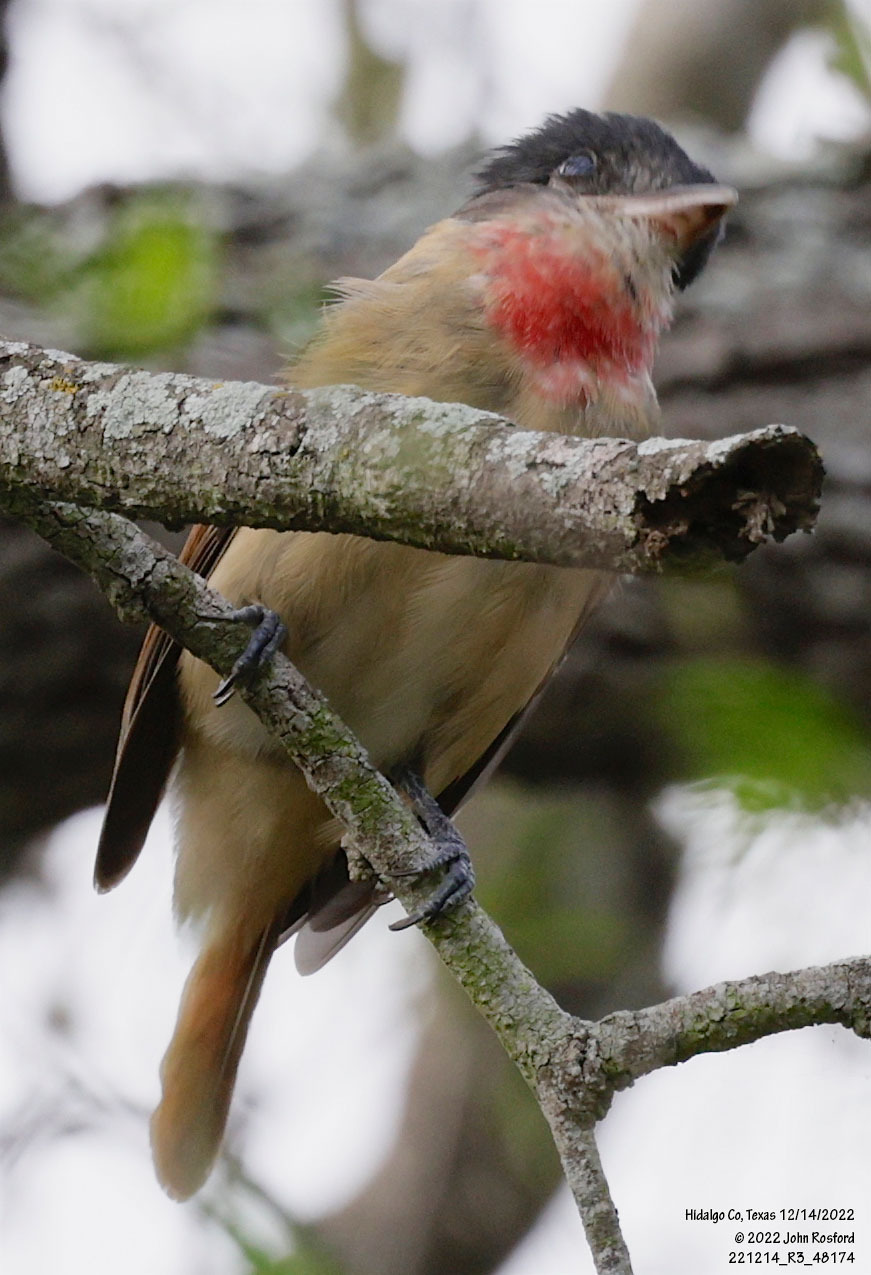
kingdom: Animalia
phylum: Chordata
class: Aves
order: Passeriformes
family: Cotingidae
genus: Pachyramphus
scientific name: Pachyramphus aglaiae
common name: Rose-throated becard
